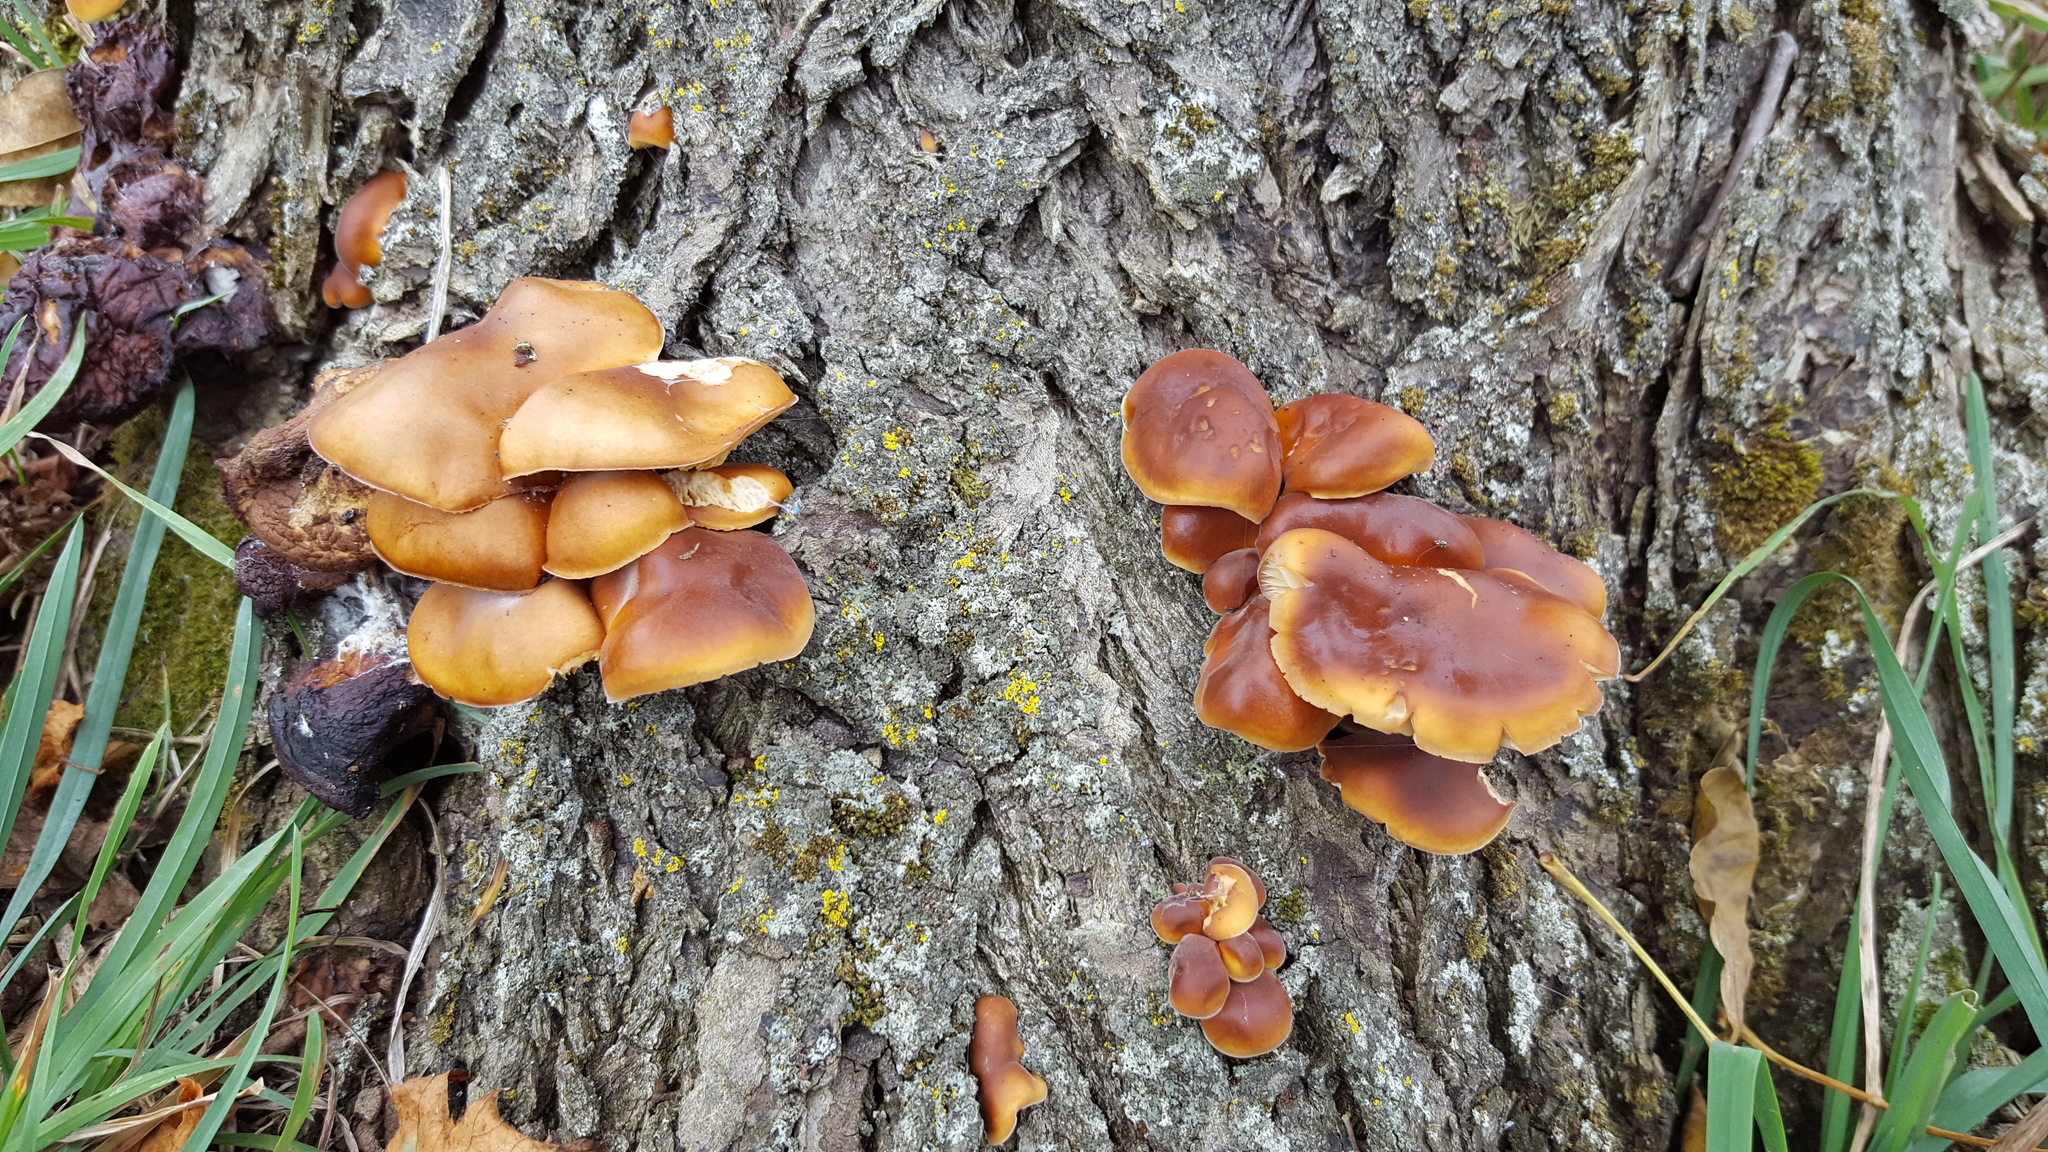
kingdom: Fungi
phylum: Basidiomycota
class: Agaricomycetes
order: Agaricales
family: Physalacriaceae
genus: Flammulina
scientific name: Flammulina velutipes
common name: Velvet shank
